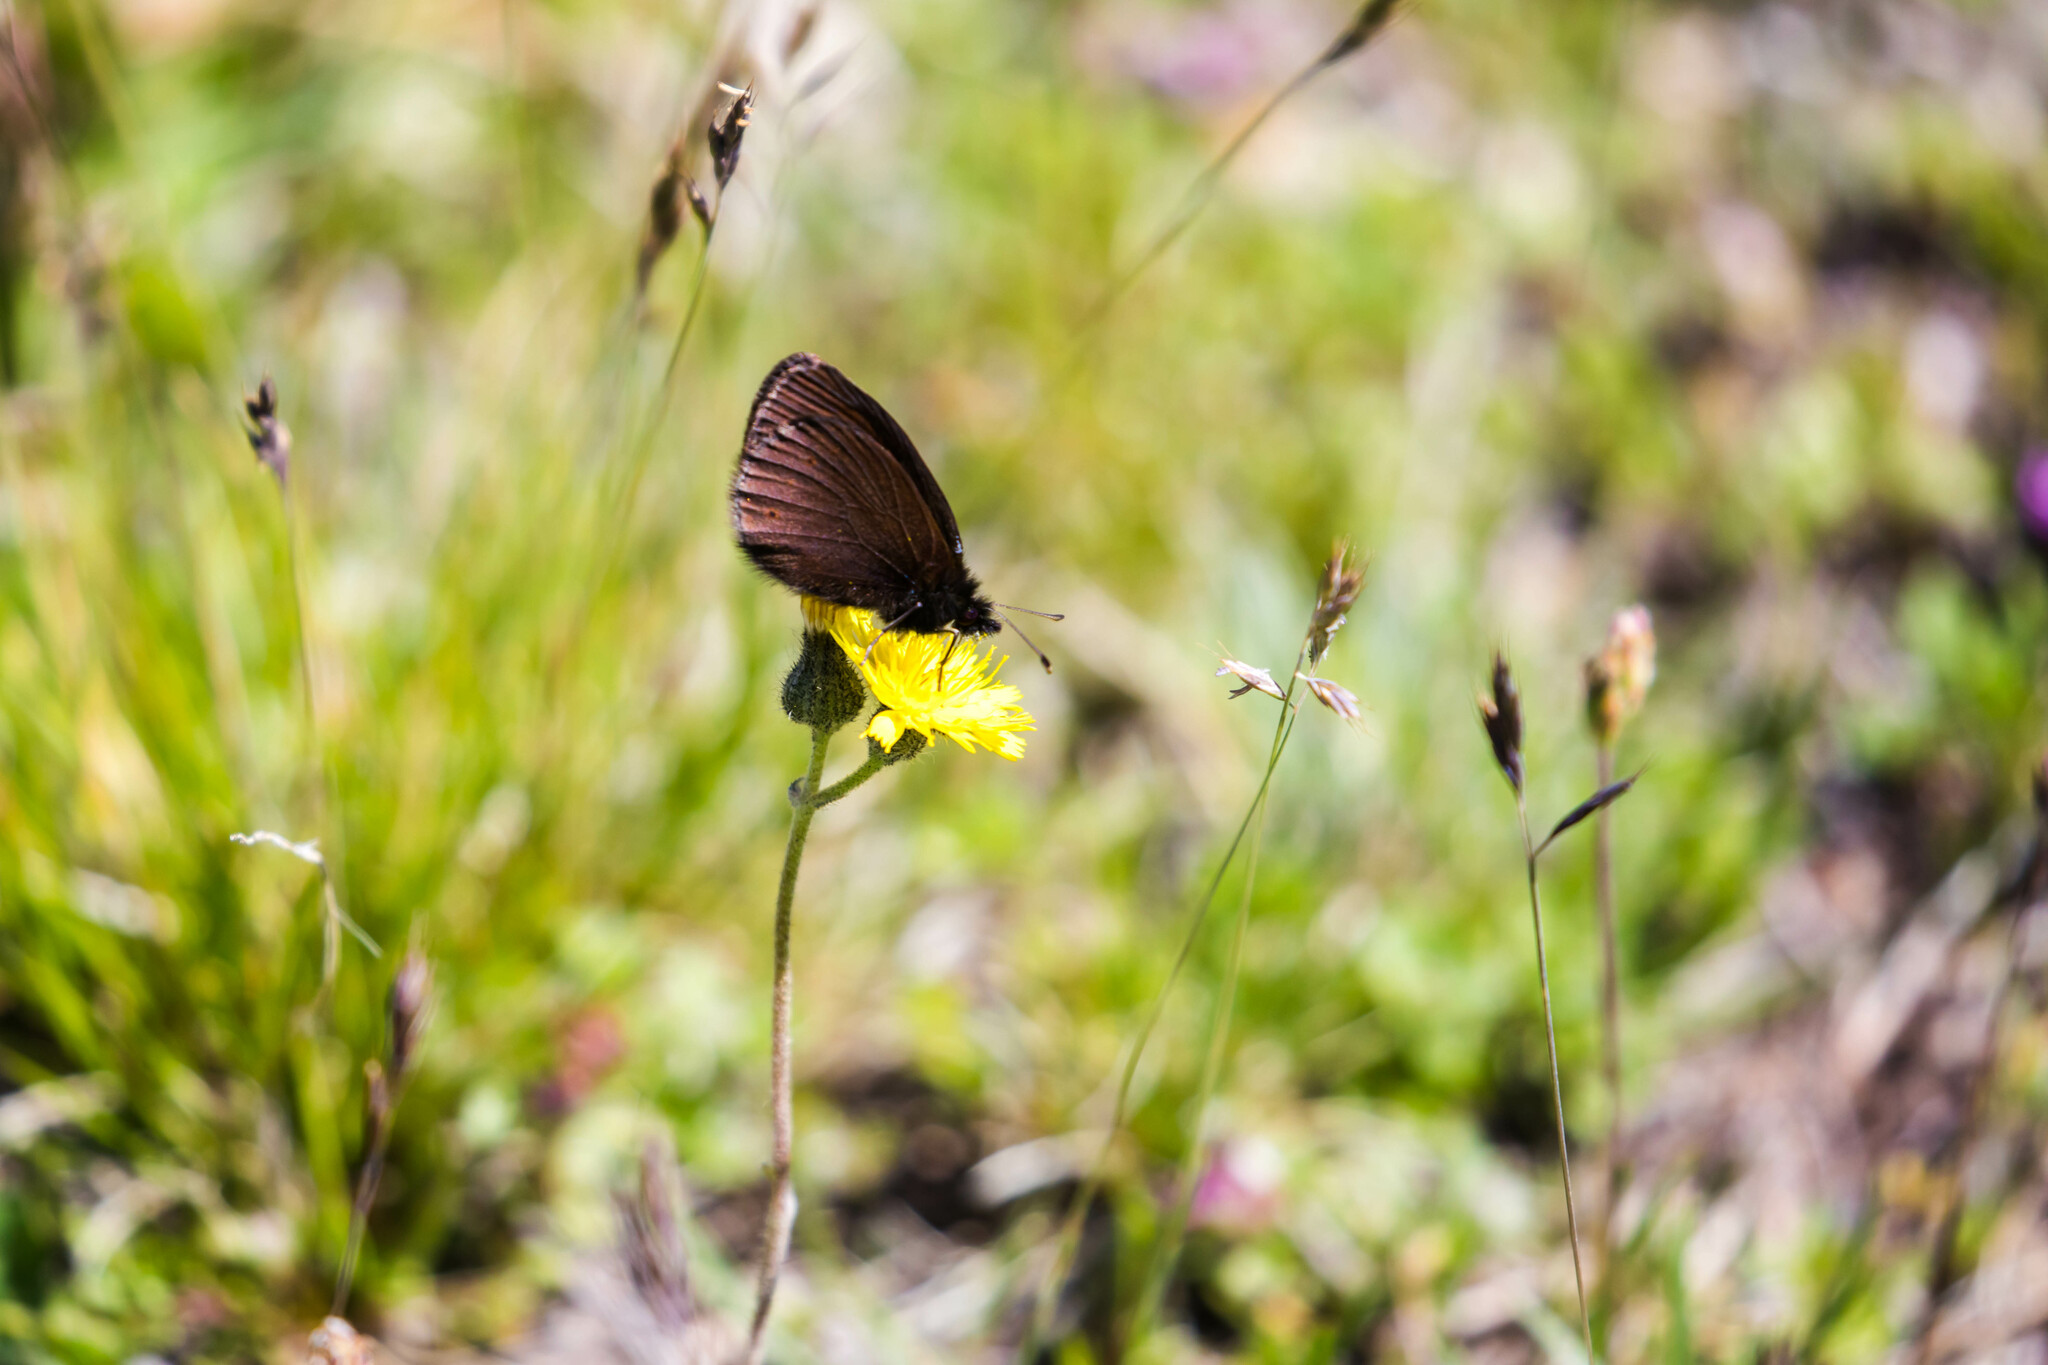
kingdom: Animalia
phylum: Arthropoda
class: Insecta
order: Lepidoptera
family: Nymphalidae
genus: Erebia
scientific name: Erebia epiphron
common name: Mountain ringlet
